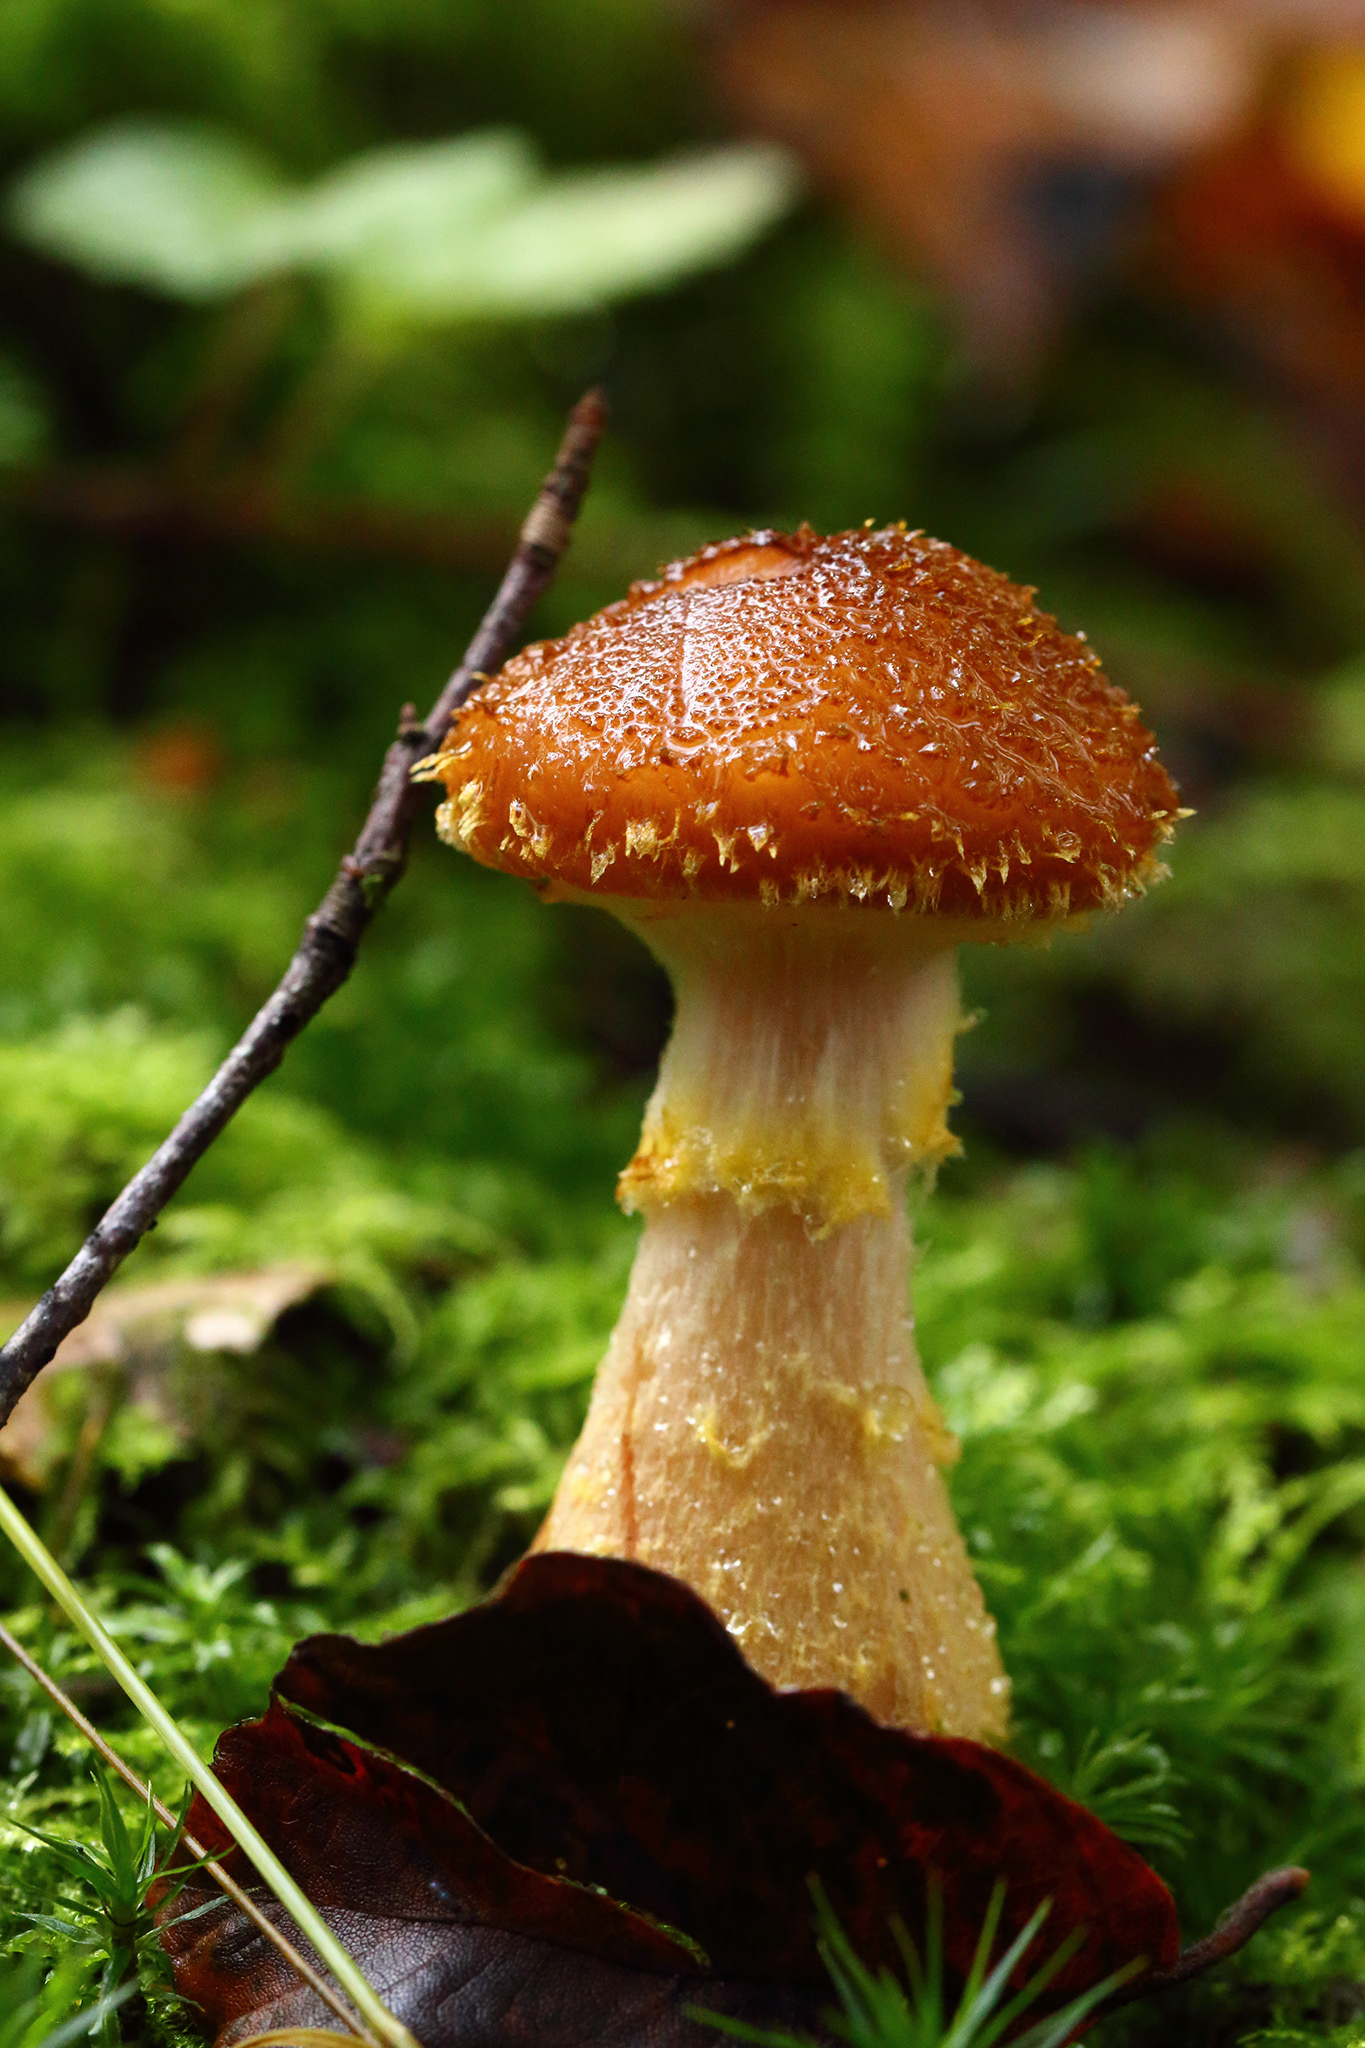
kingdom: Fungi
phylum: Basidiomycota
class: Agaricomycetes
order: Agaricales
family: Physalacriaceae
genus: Armillaria
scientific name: Armillaria gallica
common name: Bulbous honey fungus
